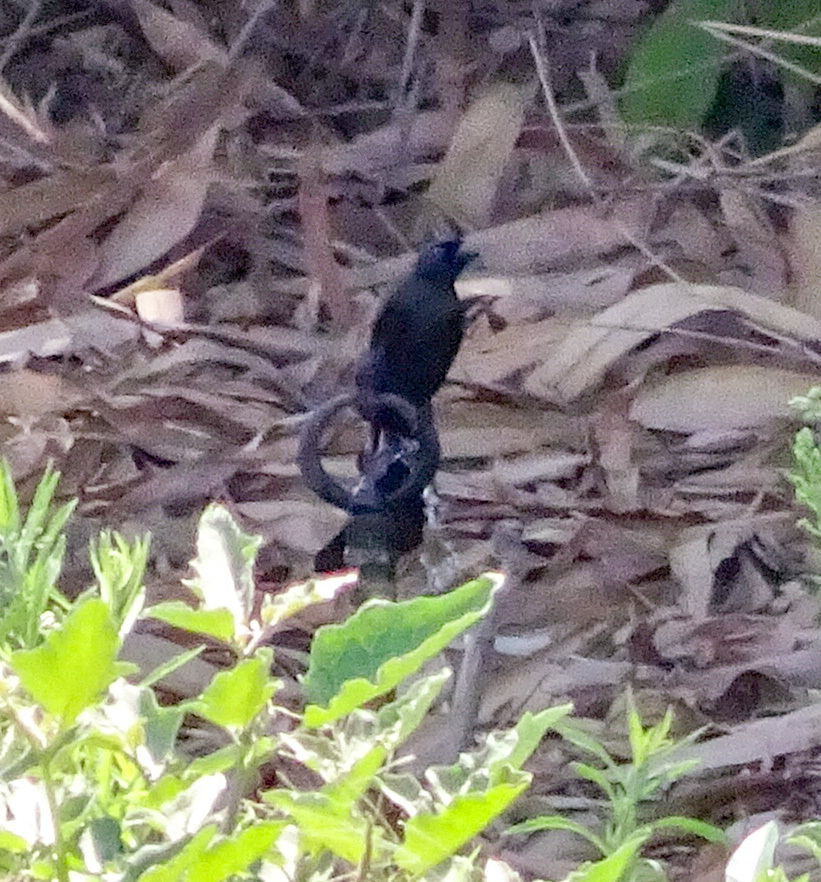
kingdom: Animalia
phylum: Chordata
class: Aves
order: Passeriformes
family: Corvidae
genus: Crypsirina
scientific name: Crypsirina temia
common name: Racket-tailed treepie
